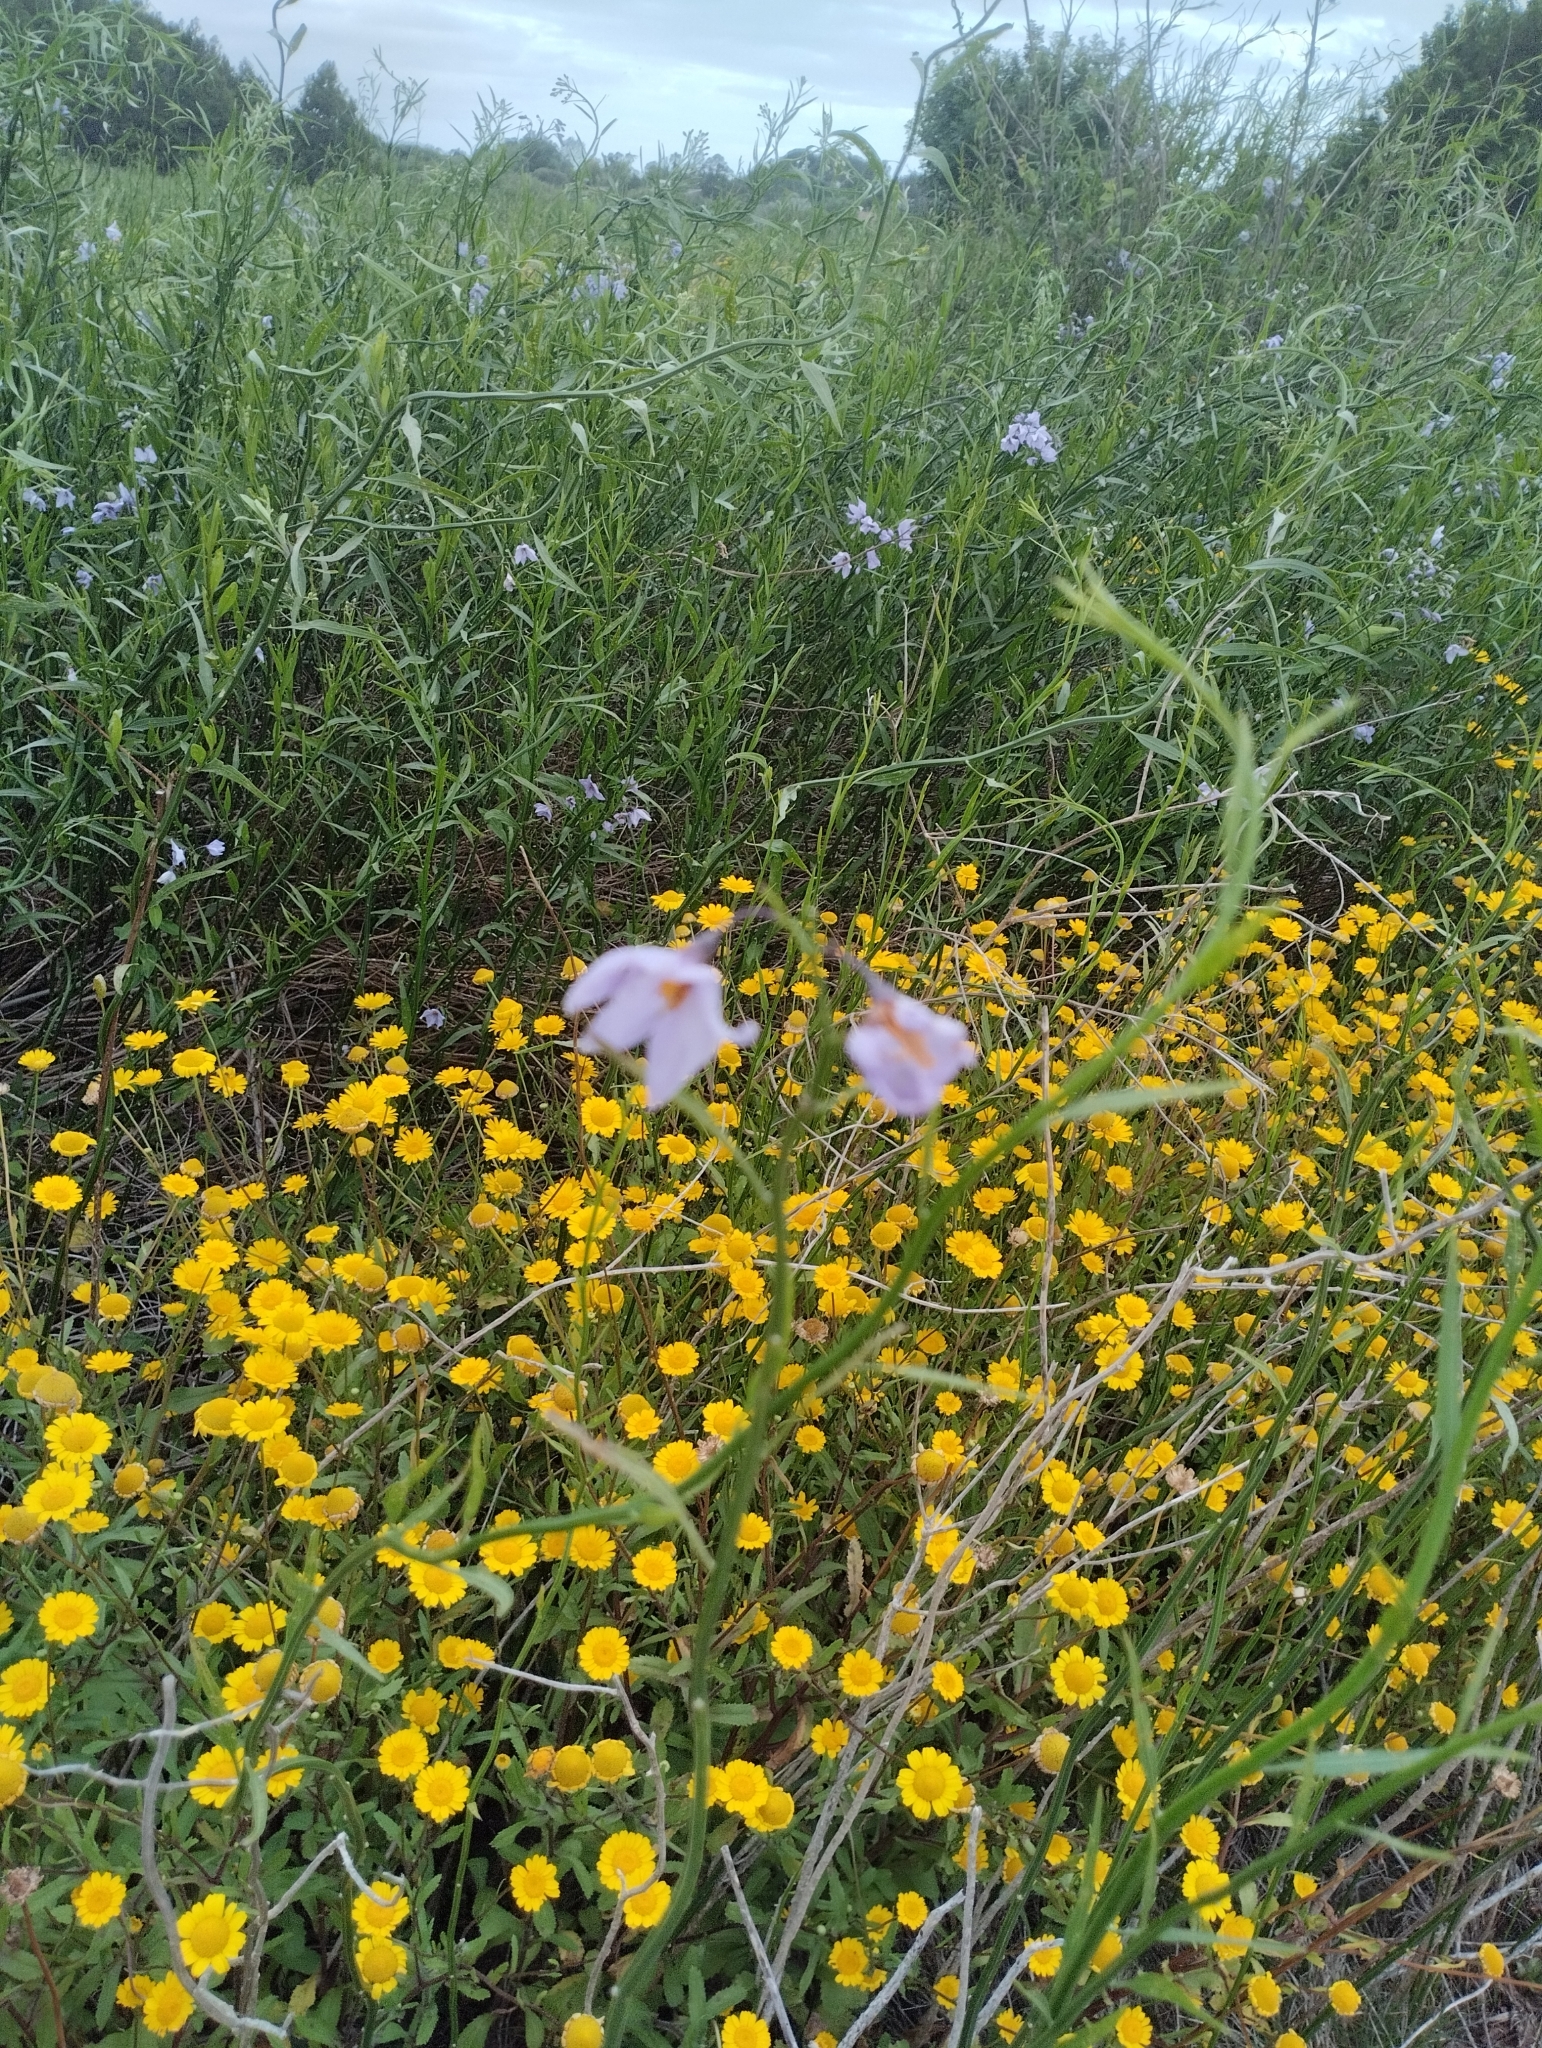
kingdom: Plantae
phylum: Tracheophyta
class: Magnoliopsida
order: Solanales
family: Solanaceae
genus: Solanum
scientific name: Solanum amygdalifolium
